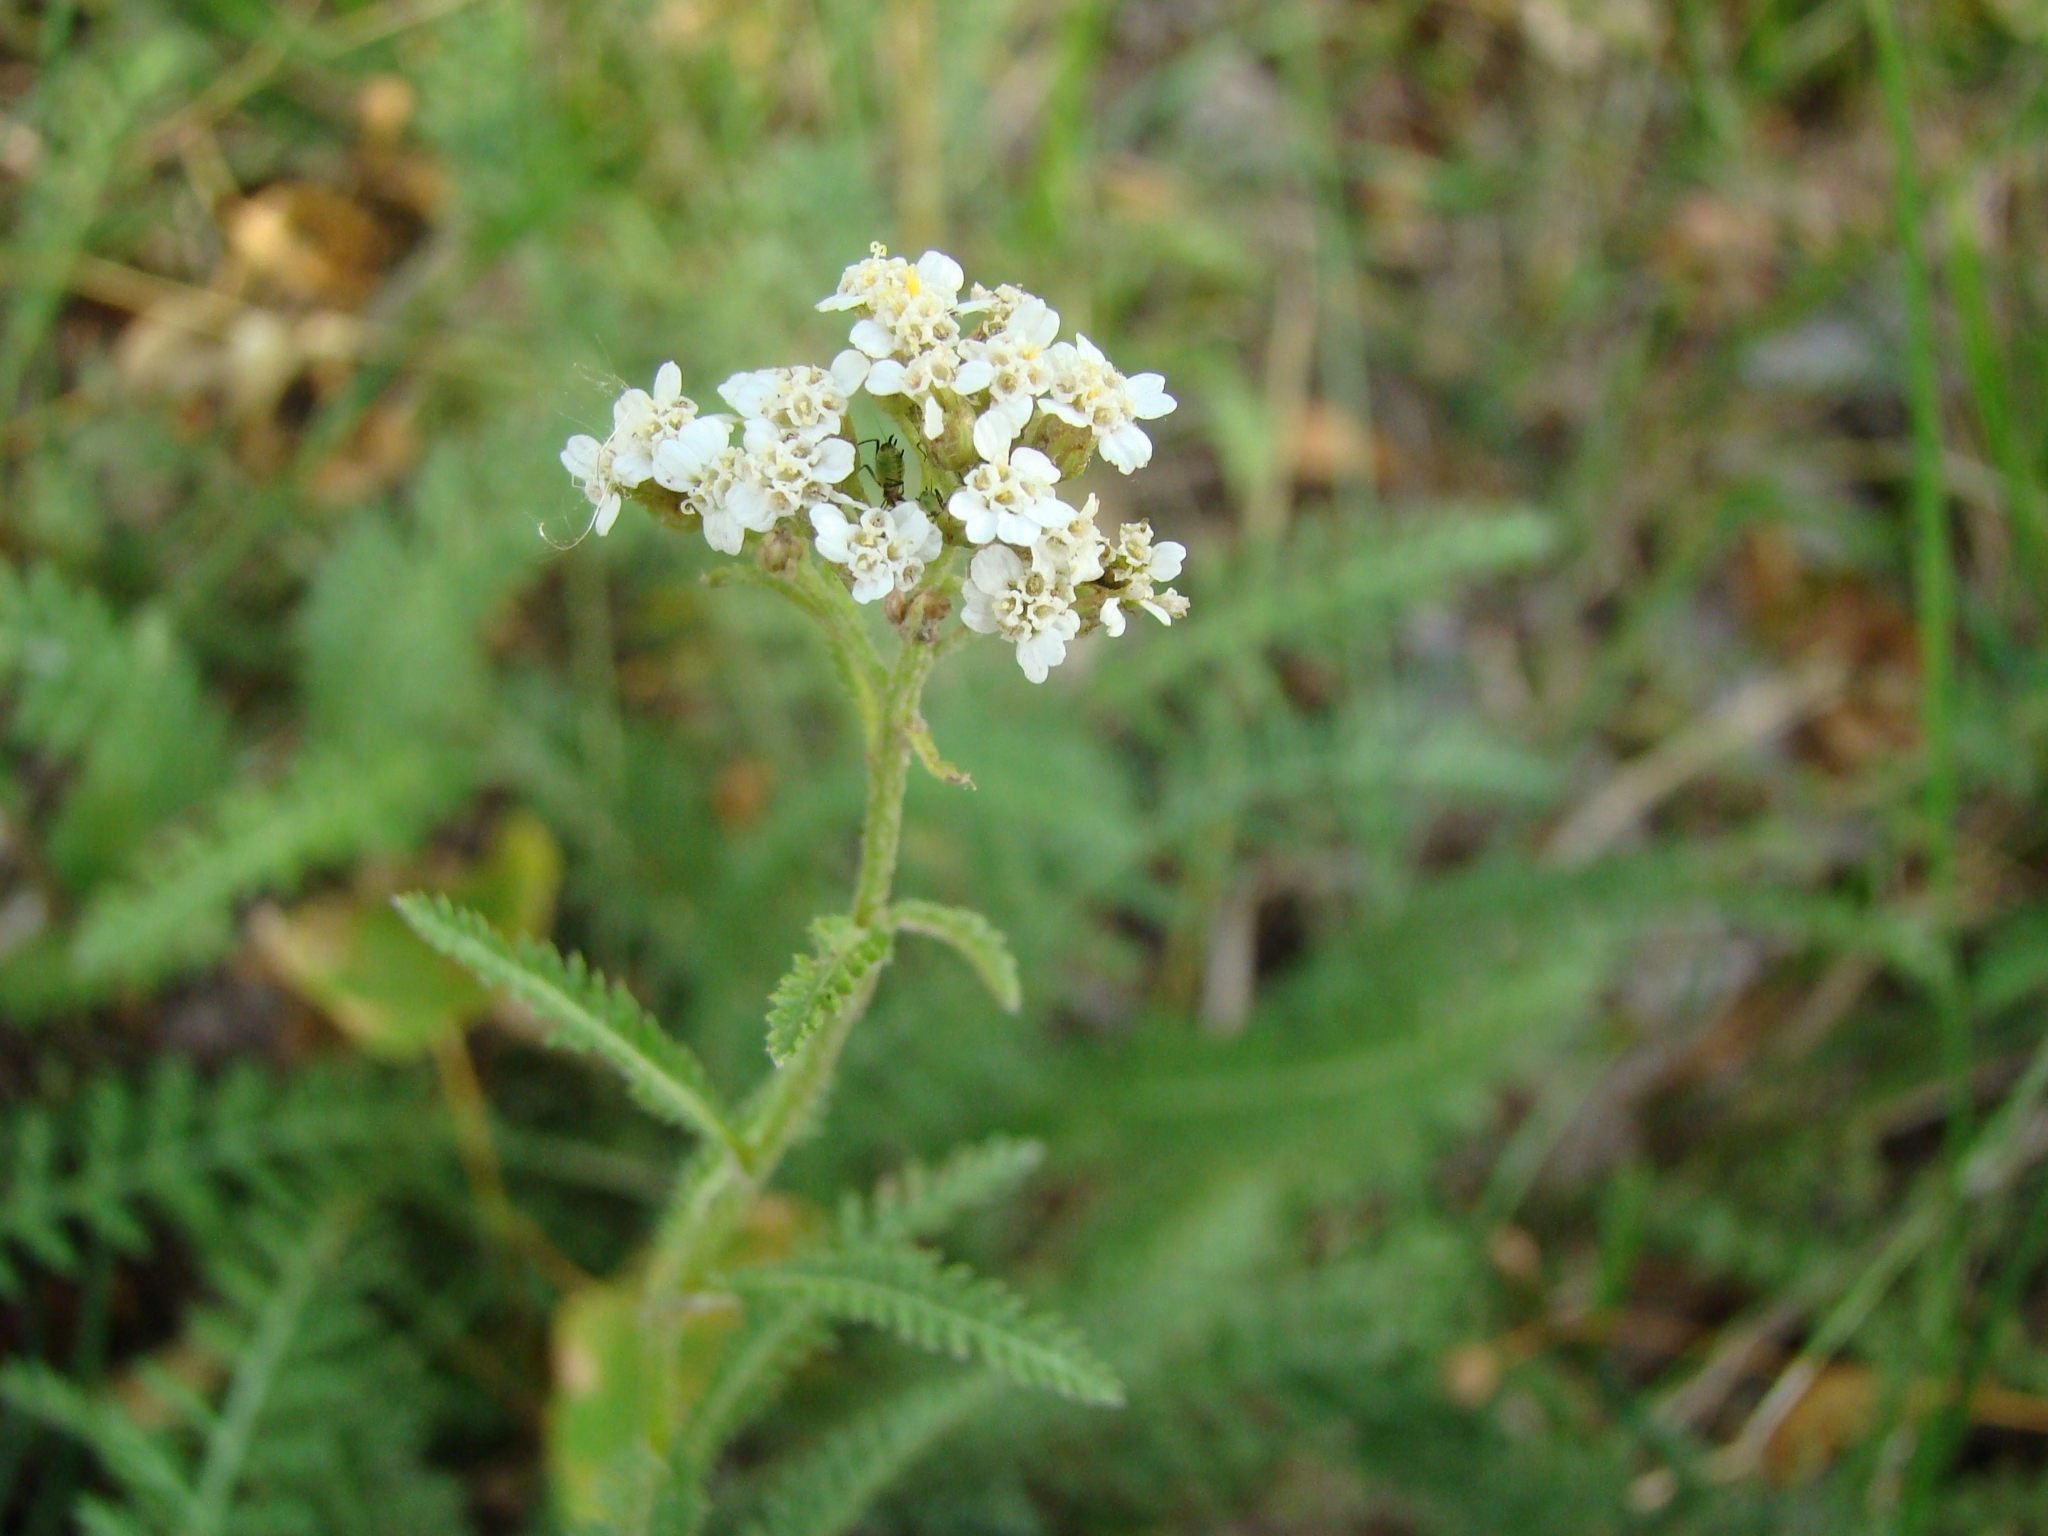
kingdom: Plantae
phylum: Tracheophyta
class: Magnoliopsida
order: Asterales
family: Asteraceae
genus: Achillea
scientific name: Achillea millefolium
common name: Yarrow
